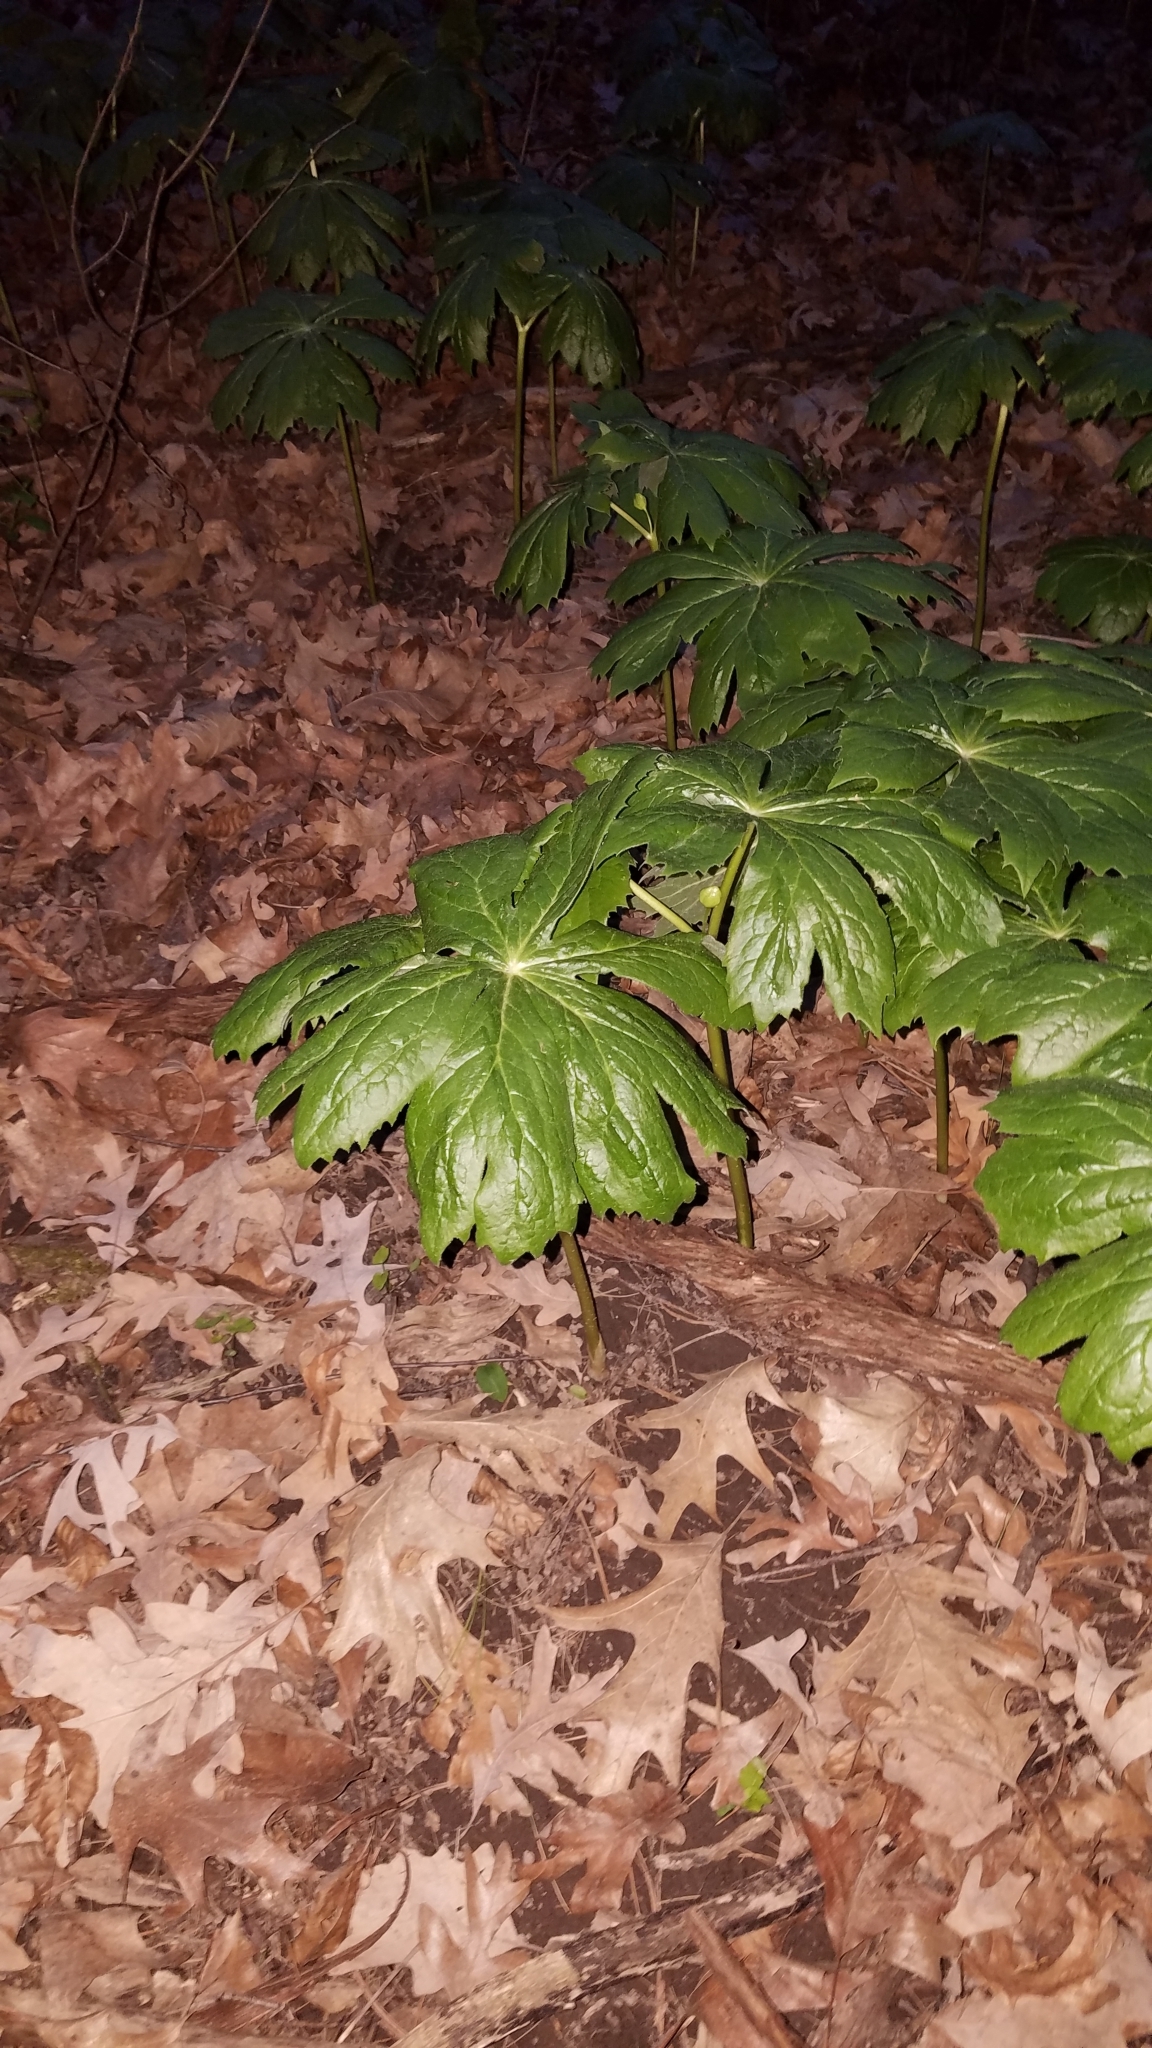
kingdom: Plantae
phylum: Tracheophyta
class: Magnoliopsida
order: Ranunculales
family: Berberidaceae
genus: Podophyllum
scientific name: Podophyllum peltatum
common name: Wild mandrake
